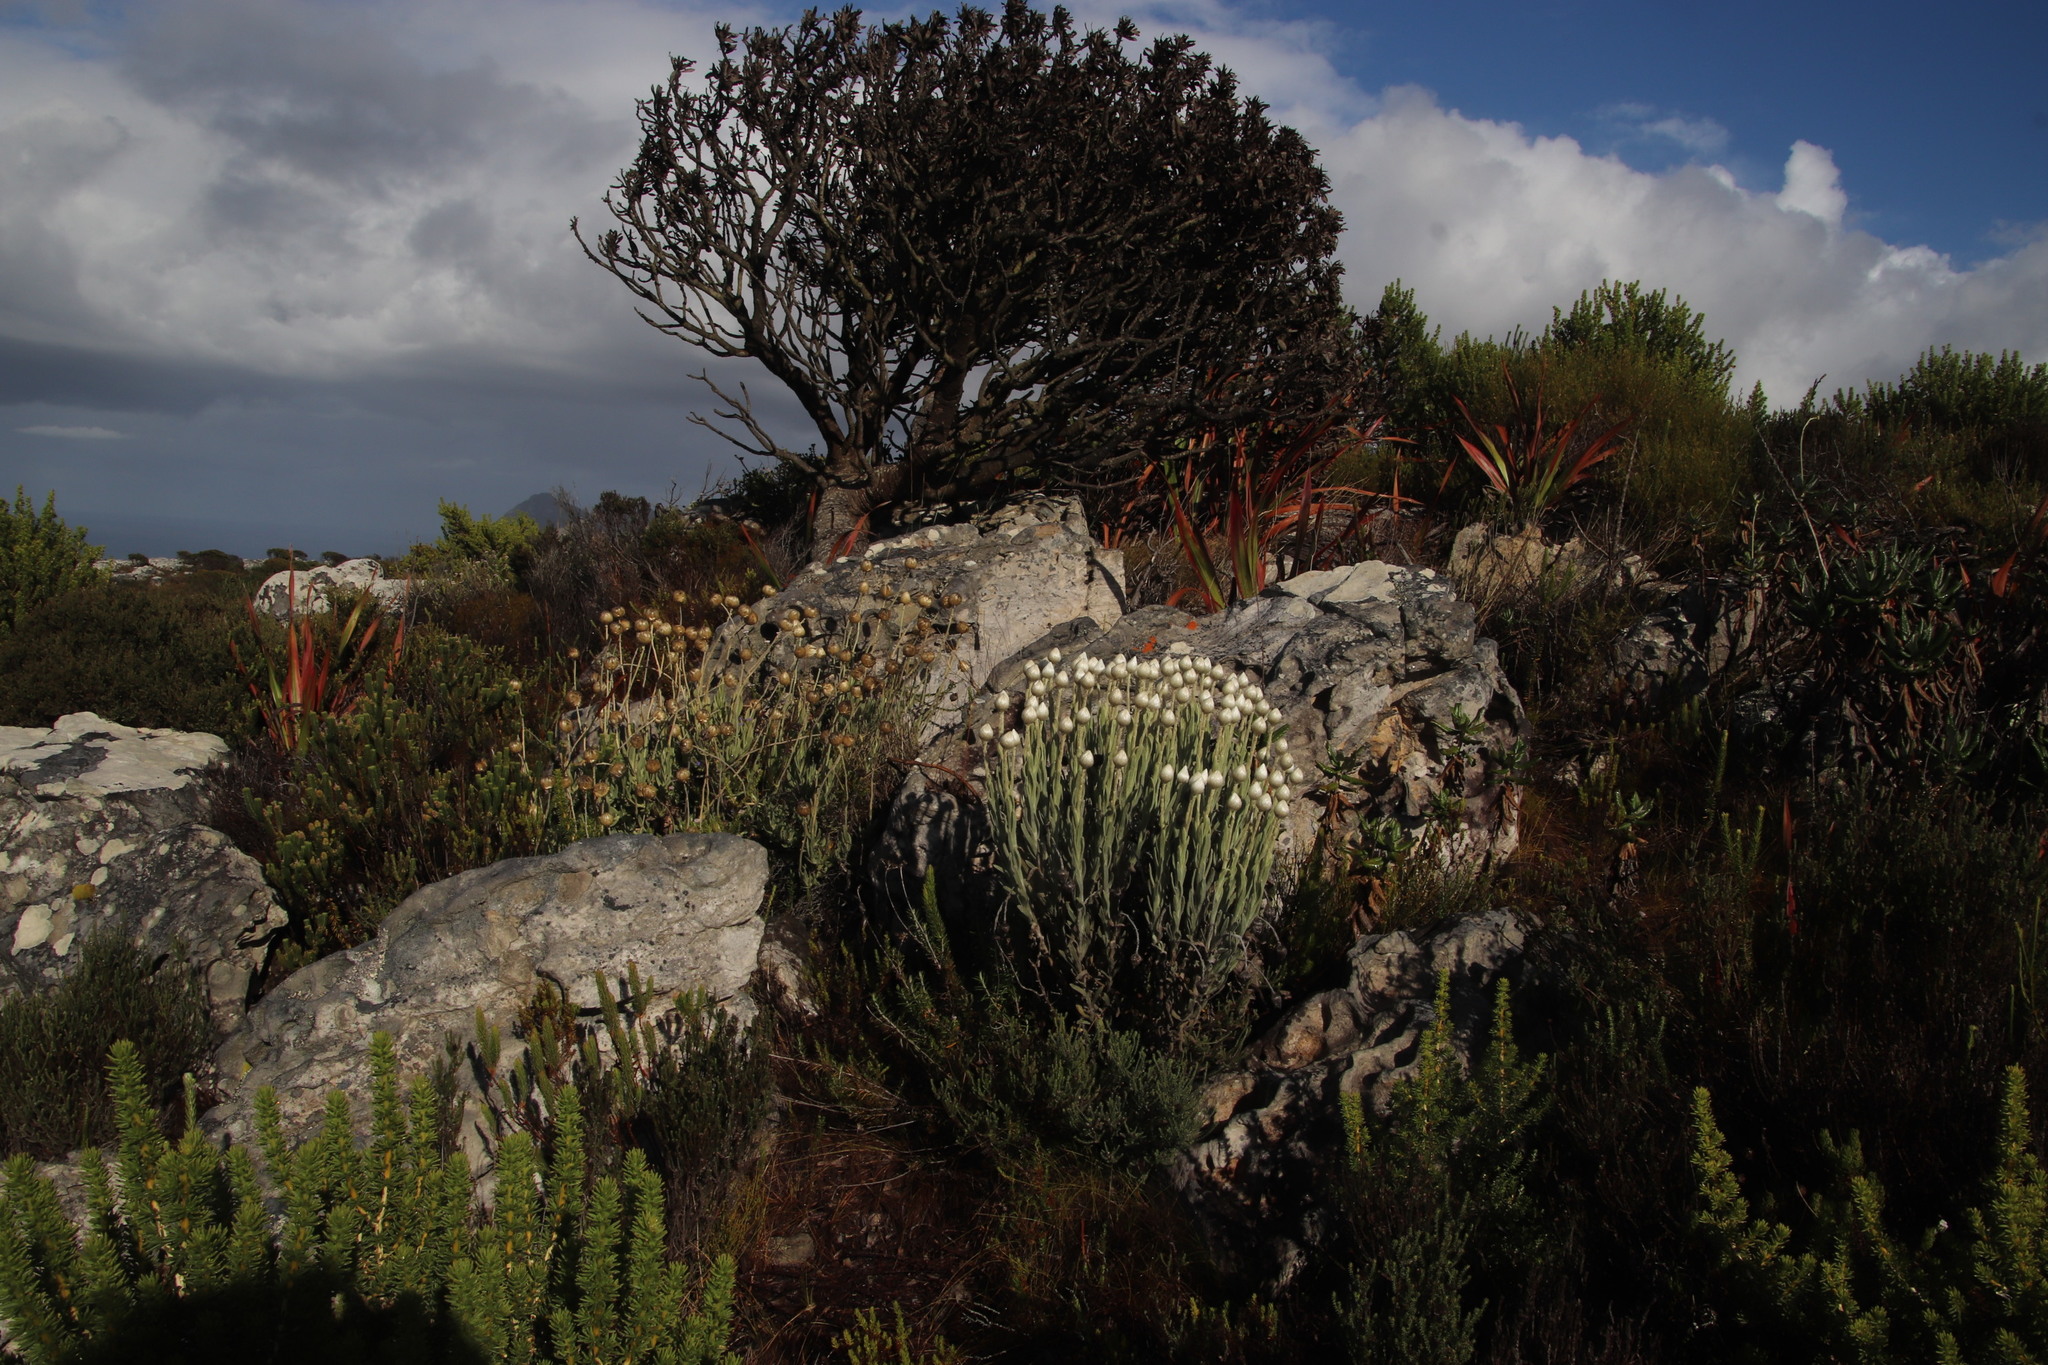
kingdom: Plantae
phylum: Tracheophyta
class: Magnoliopsida
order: Asterales
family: Asteraceae
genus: Syncarpha
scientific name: Syncarpha vestita
